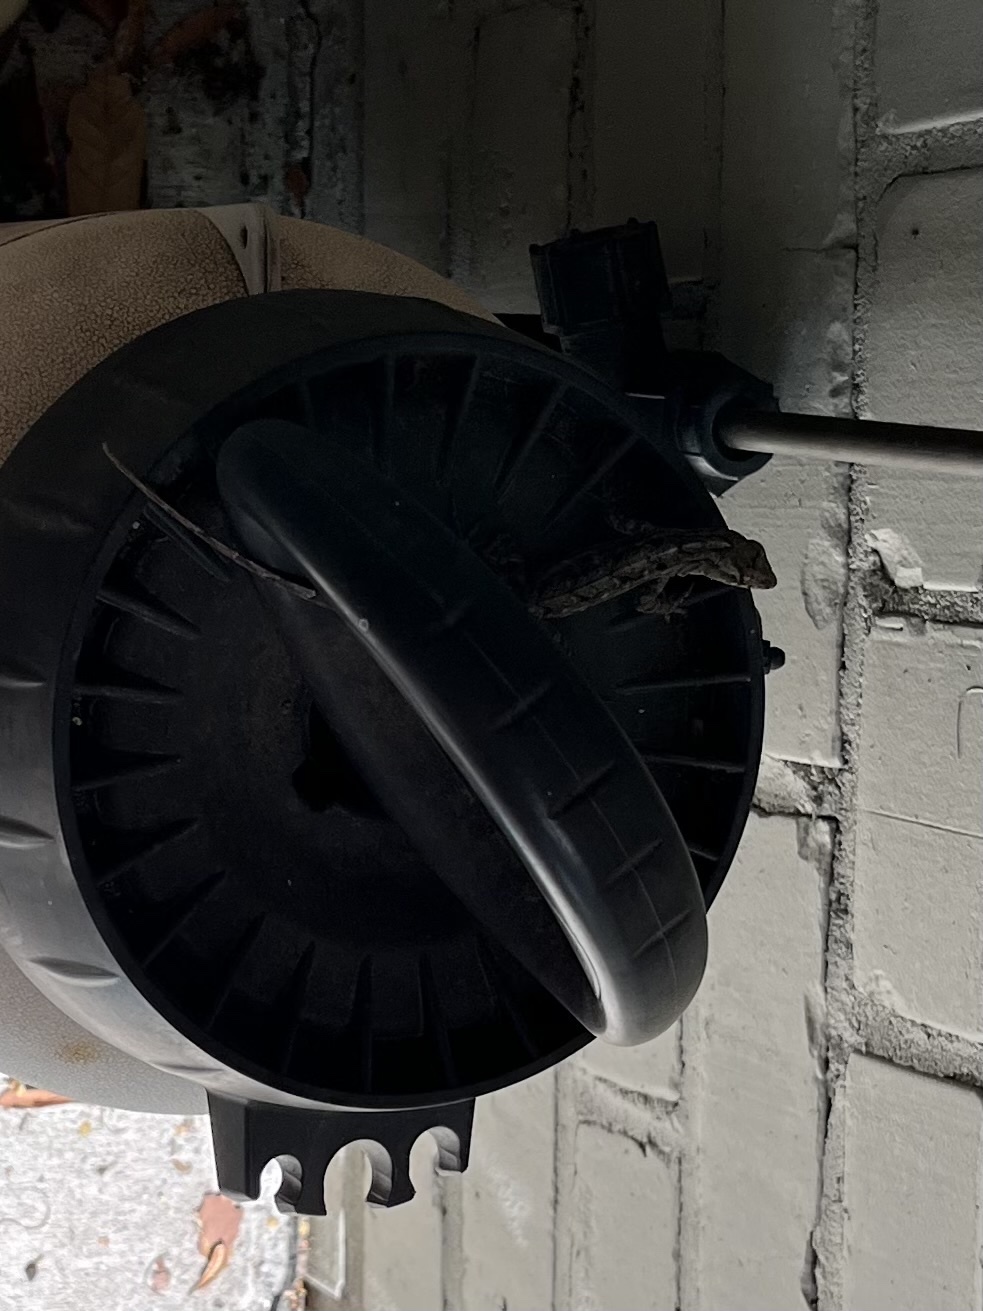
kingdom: Animalia
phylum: Chordata
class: Squamata
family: Dactyloidae
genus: Anolis
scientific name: Anolis sagrei
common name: Brown anole
